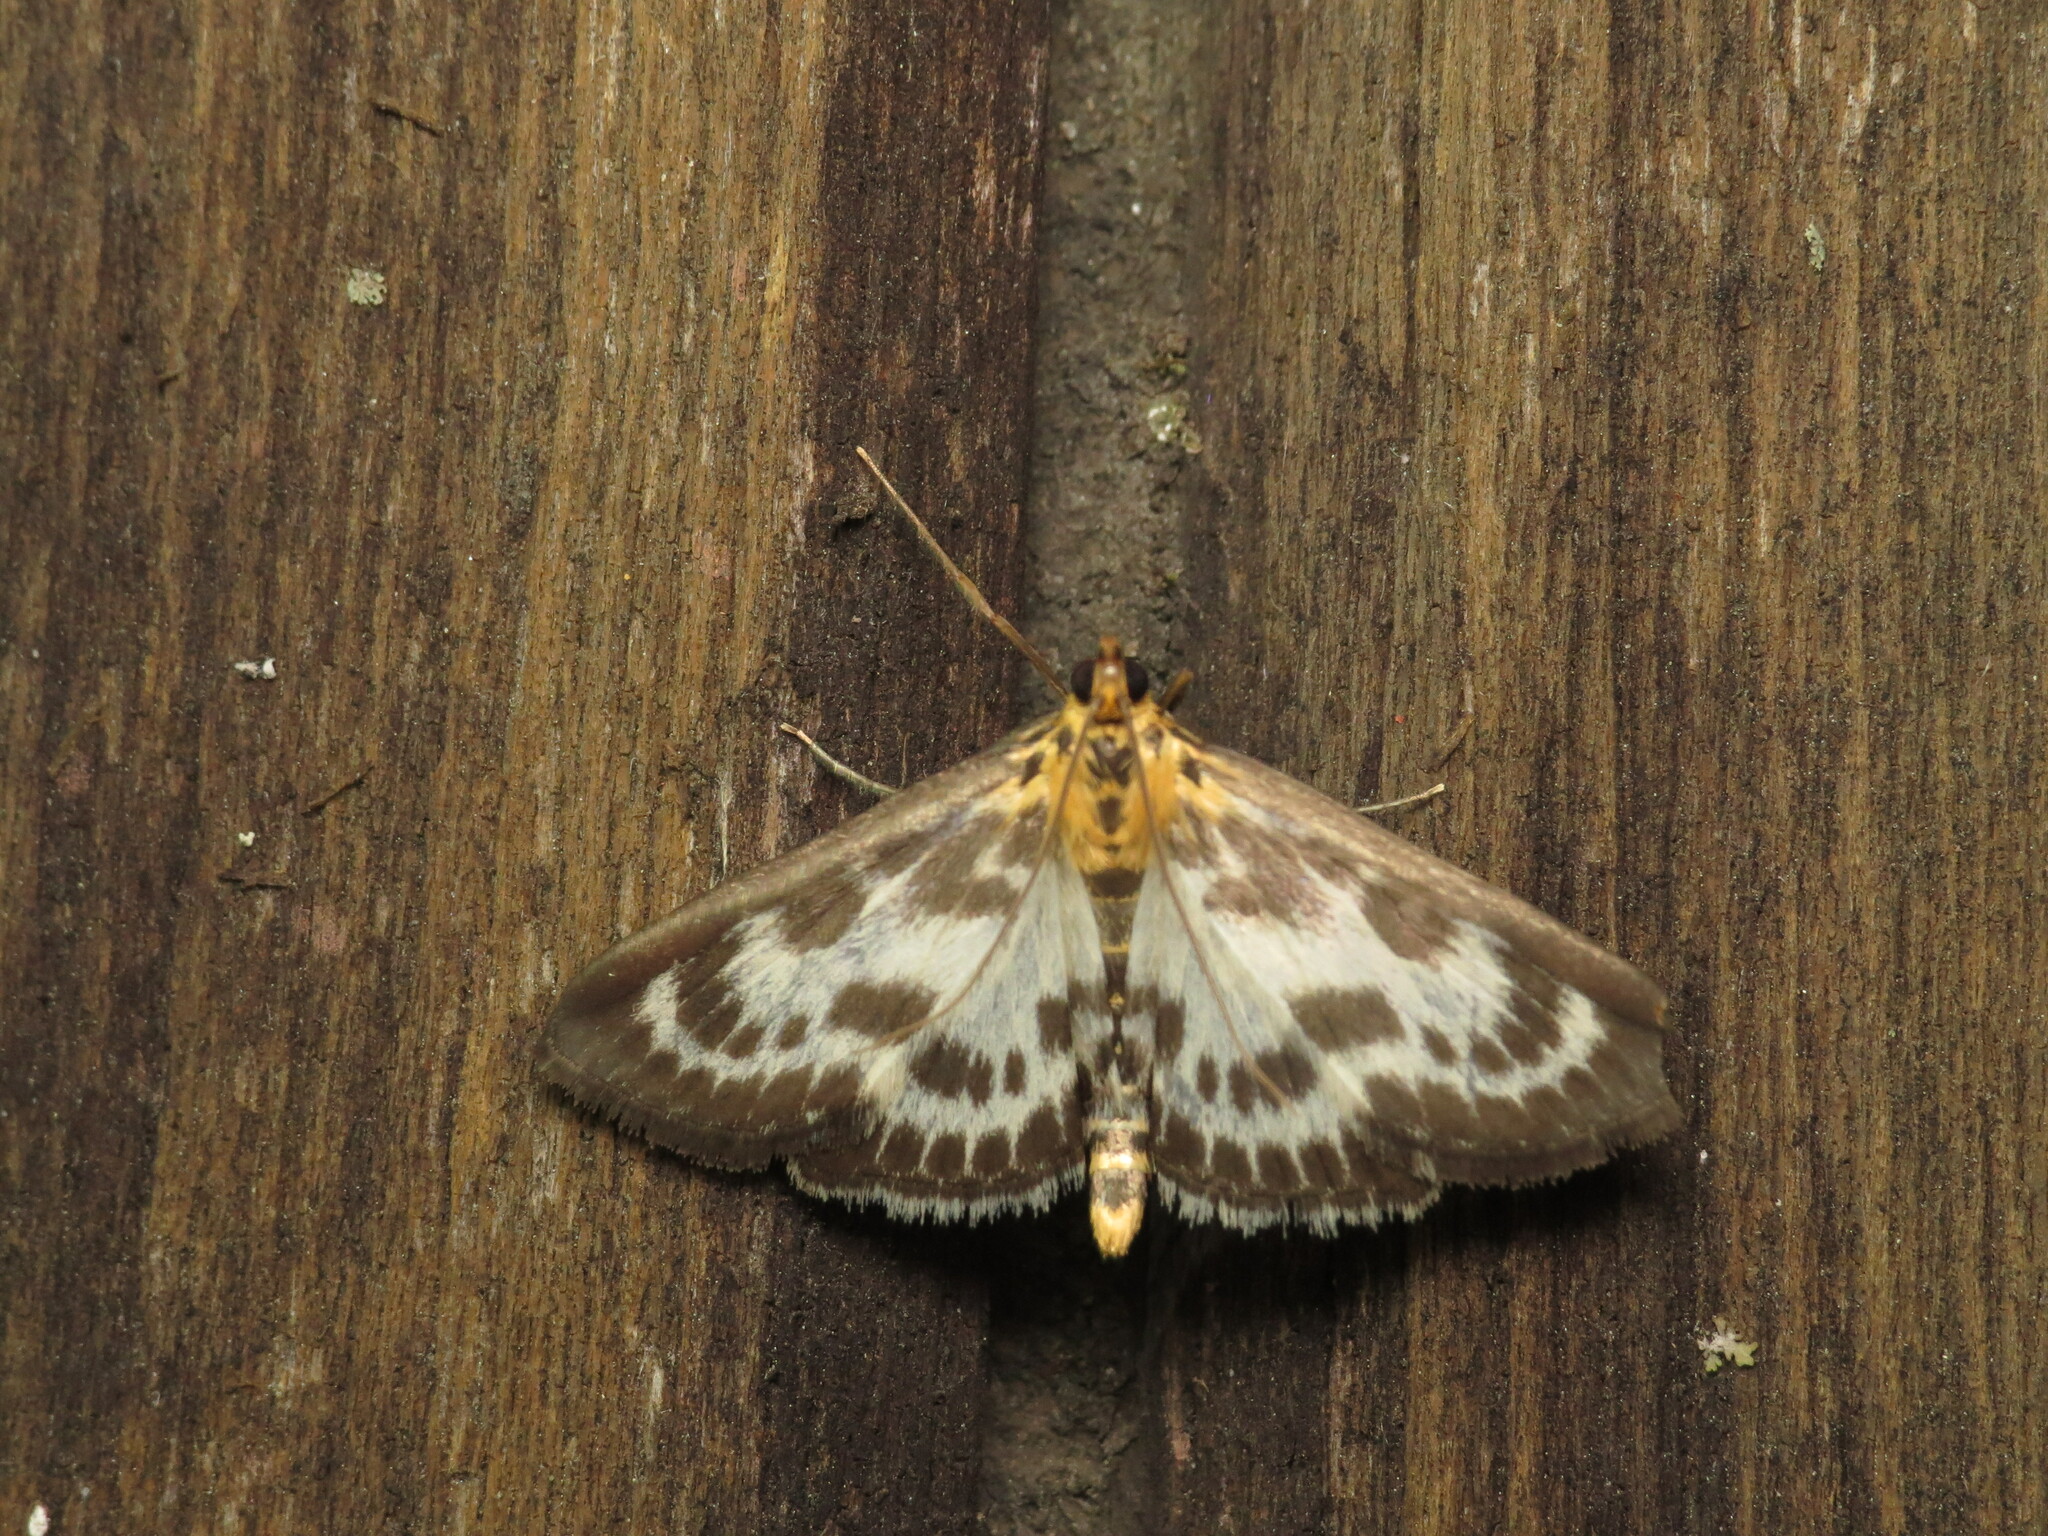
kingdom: Animalia
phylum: Arthropoda
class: Insecta
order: Lepidoptera
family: Crambidae
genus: Anania
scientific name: Anania hortulata
